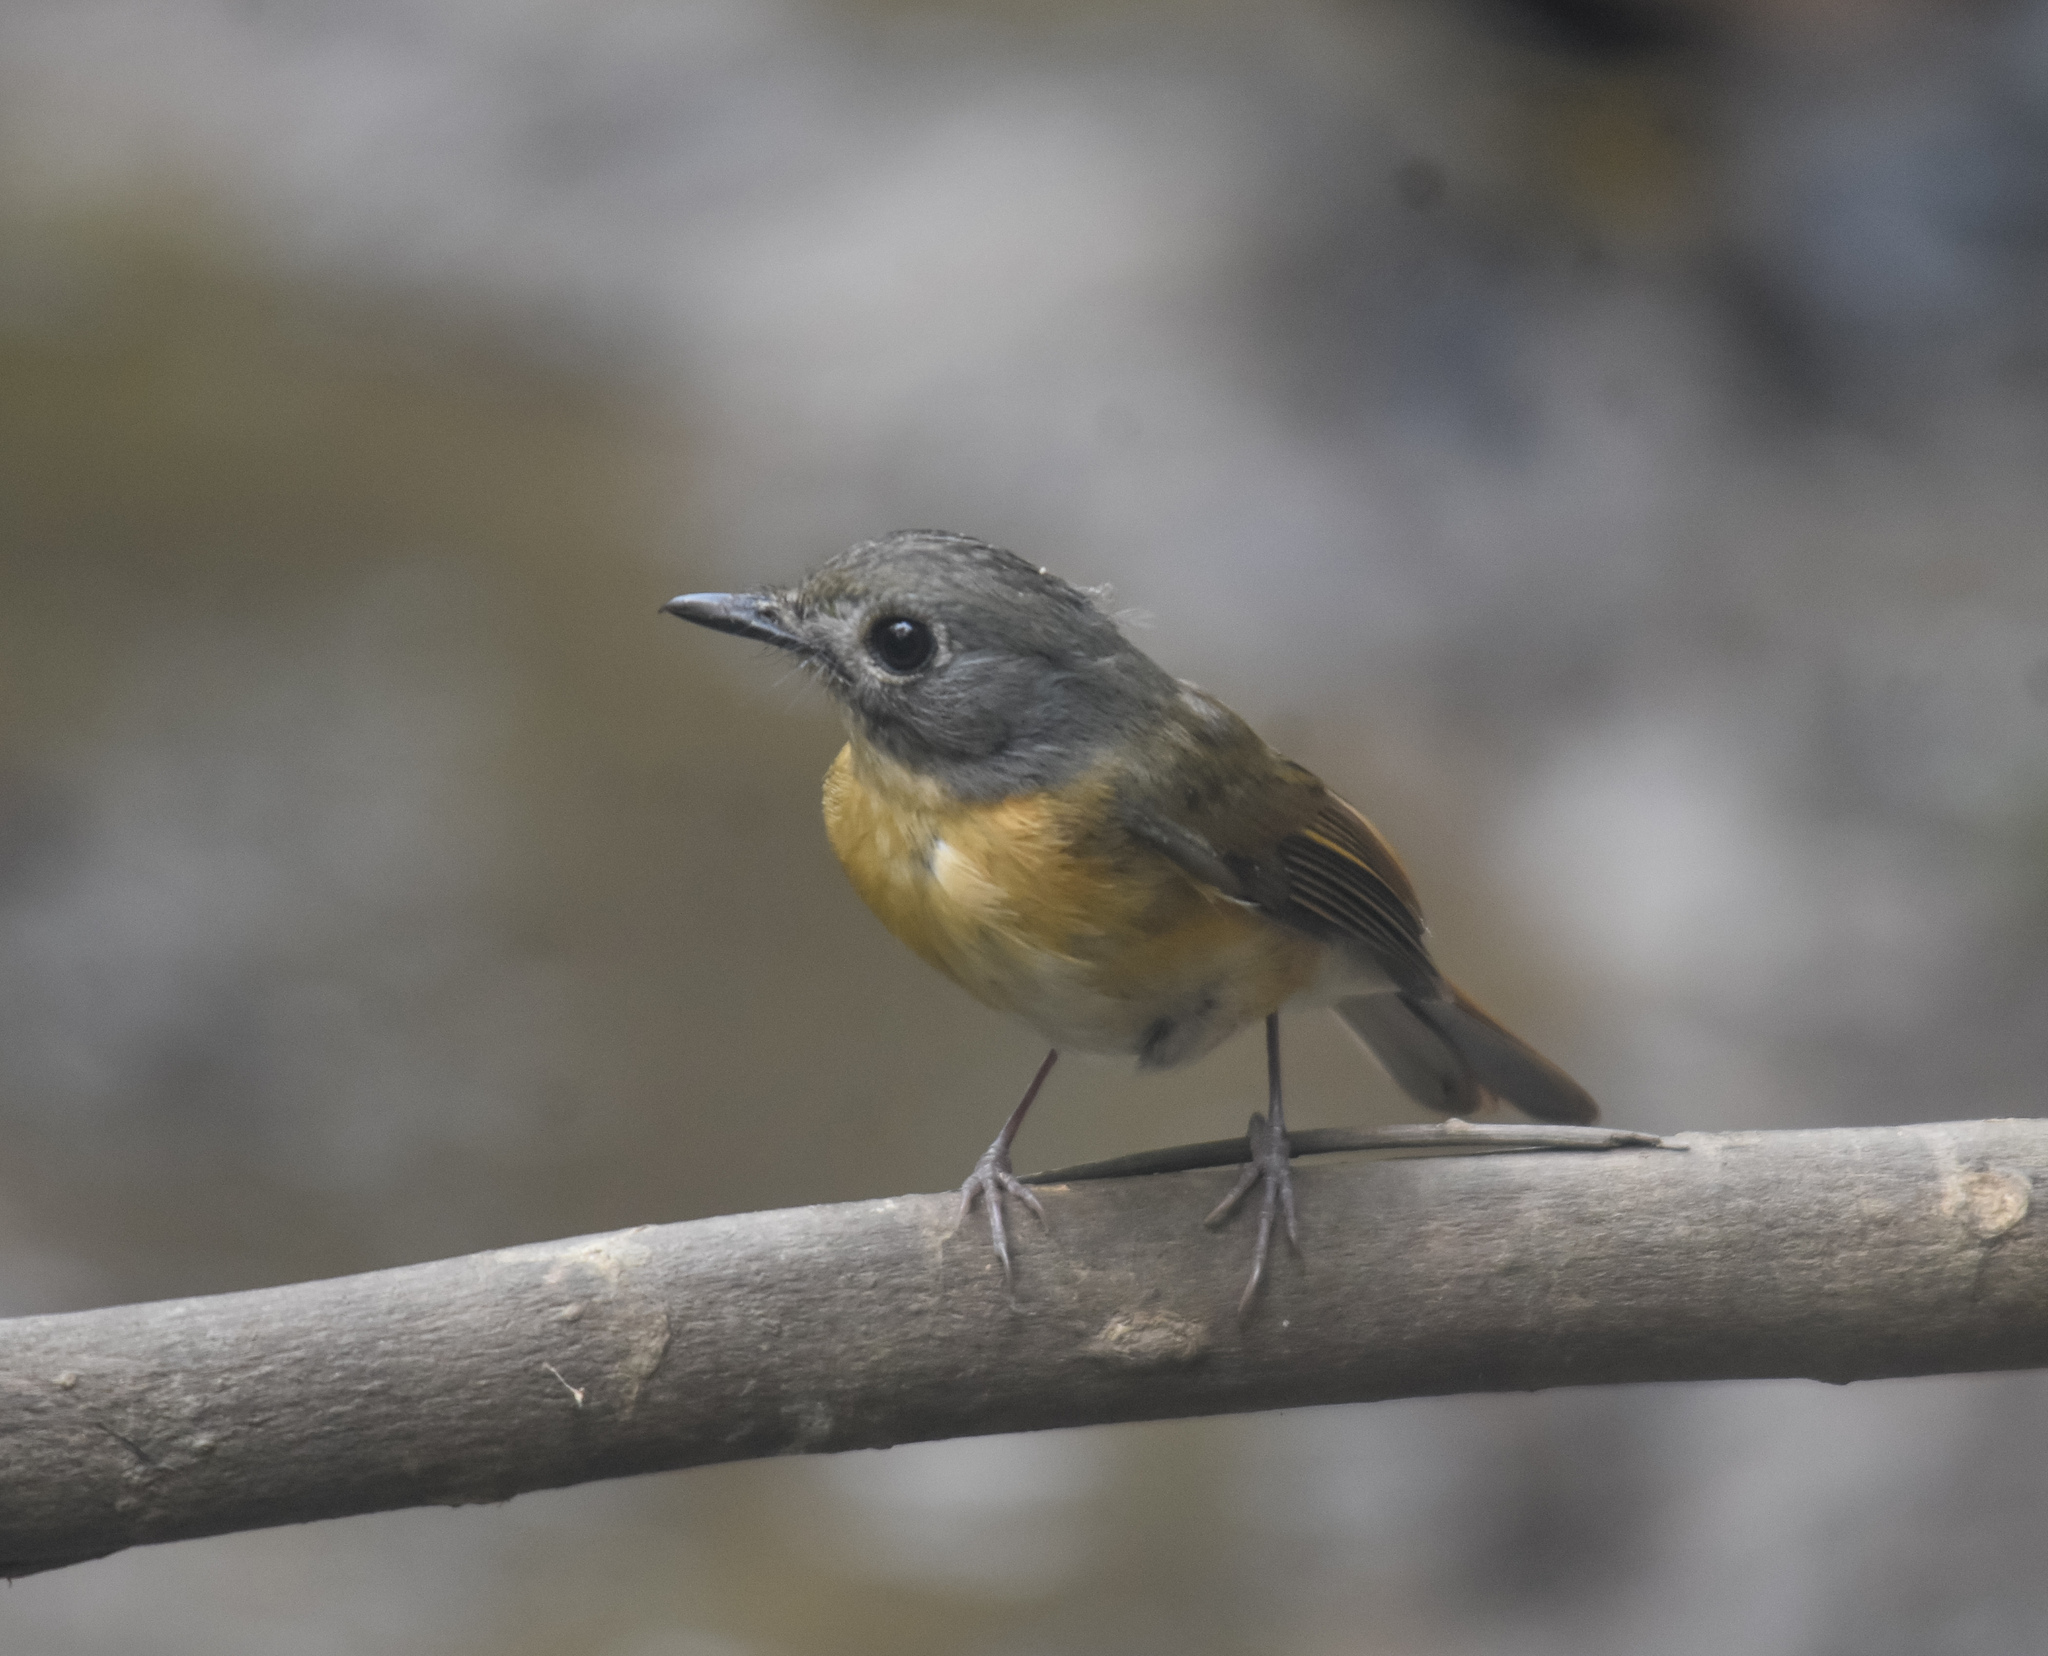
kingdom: Animalia
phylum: Chordata
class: Aves
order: Passeriformes
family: Muscicapidae
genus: Cyornis
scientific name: Cyornis poliogenys
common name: Pale-chinned blue flycatcher
